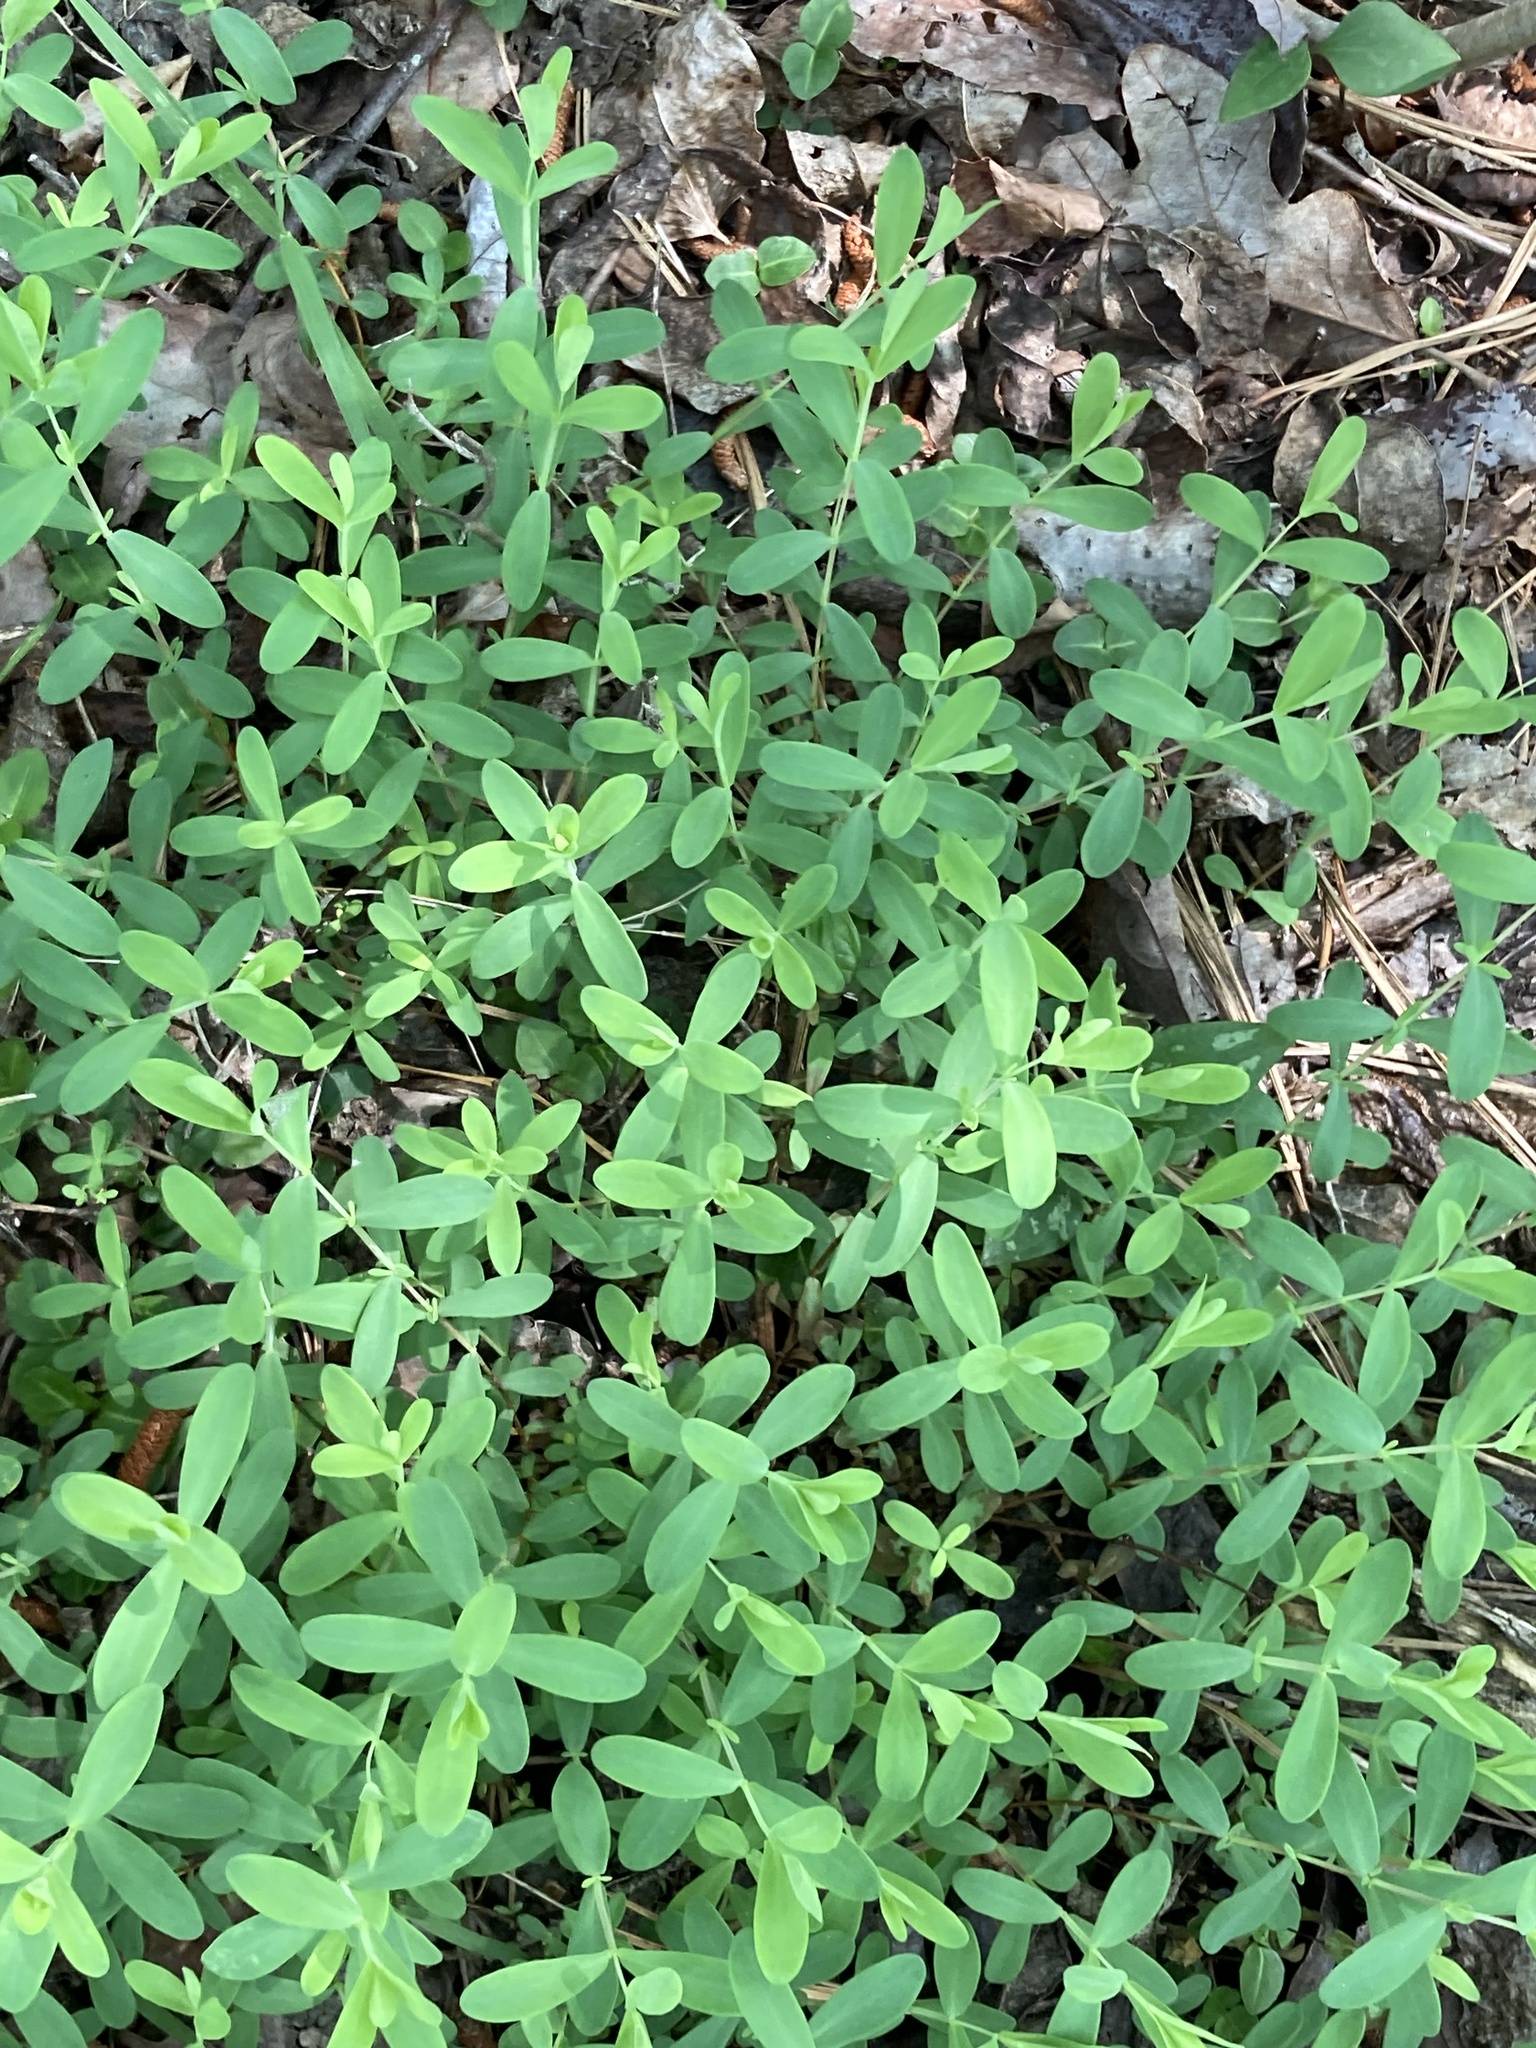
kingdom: Plantae
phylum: Tracheophyta
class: Magnoliopsida
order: Malpighiales
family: Hypericaceae
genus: Hypericum
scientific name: Hypericum hypericoides
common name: St. andrew's cross
